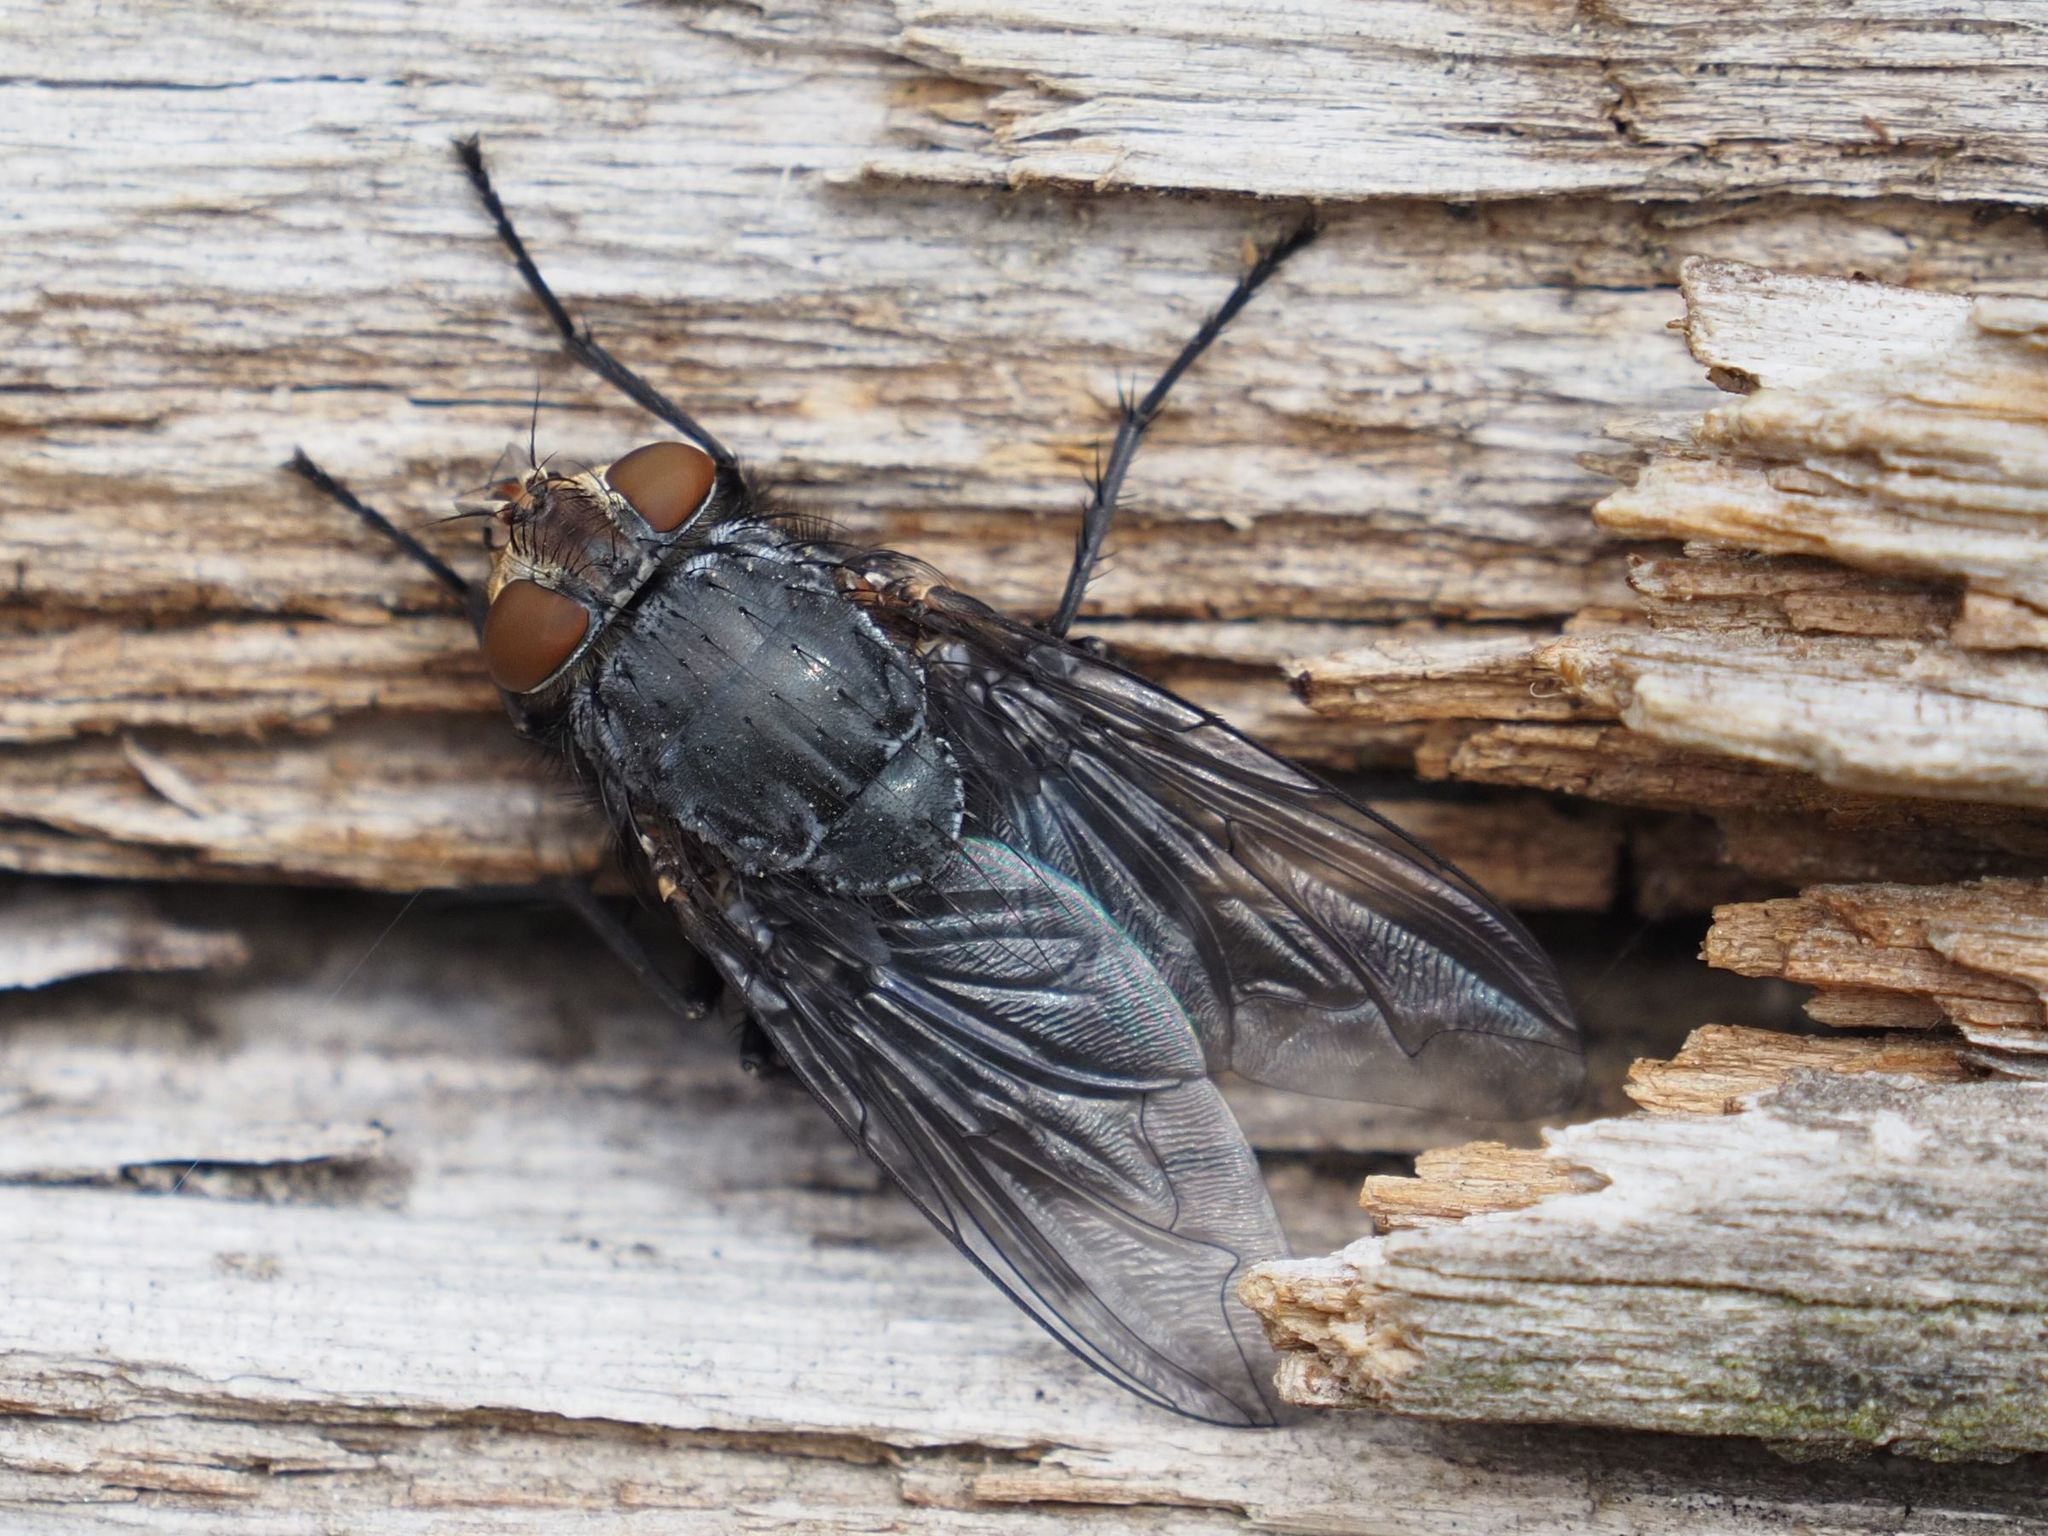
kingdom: Animalia
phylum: Arthropoda
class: Insecta
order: Diptera
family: Calliphoridae
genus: Calliphora
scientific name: Calliphora vicina
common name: Common blow flie
